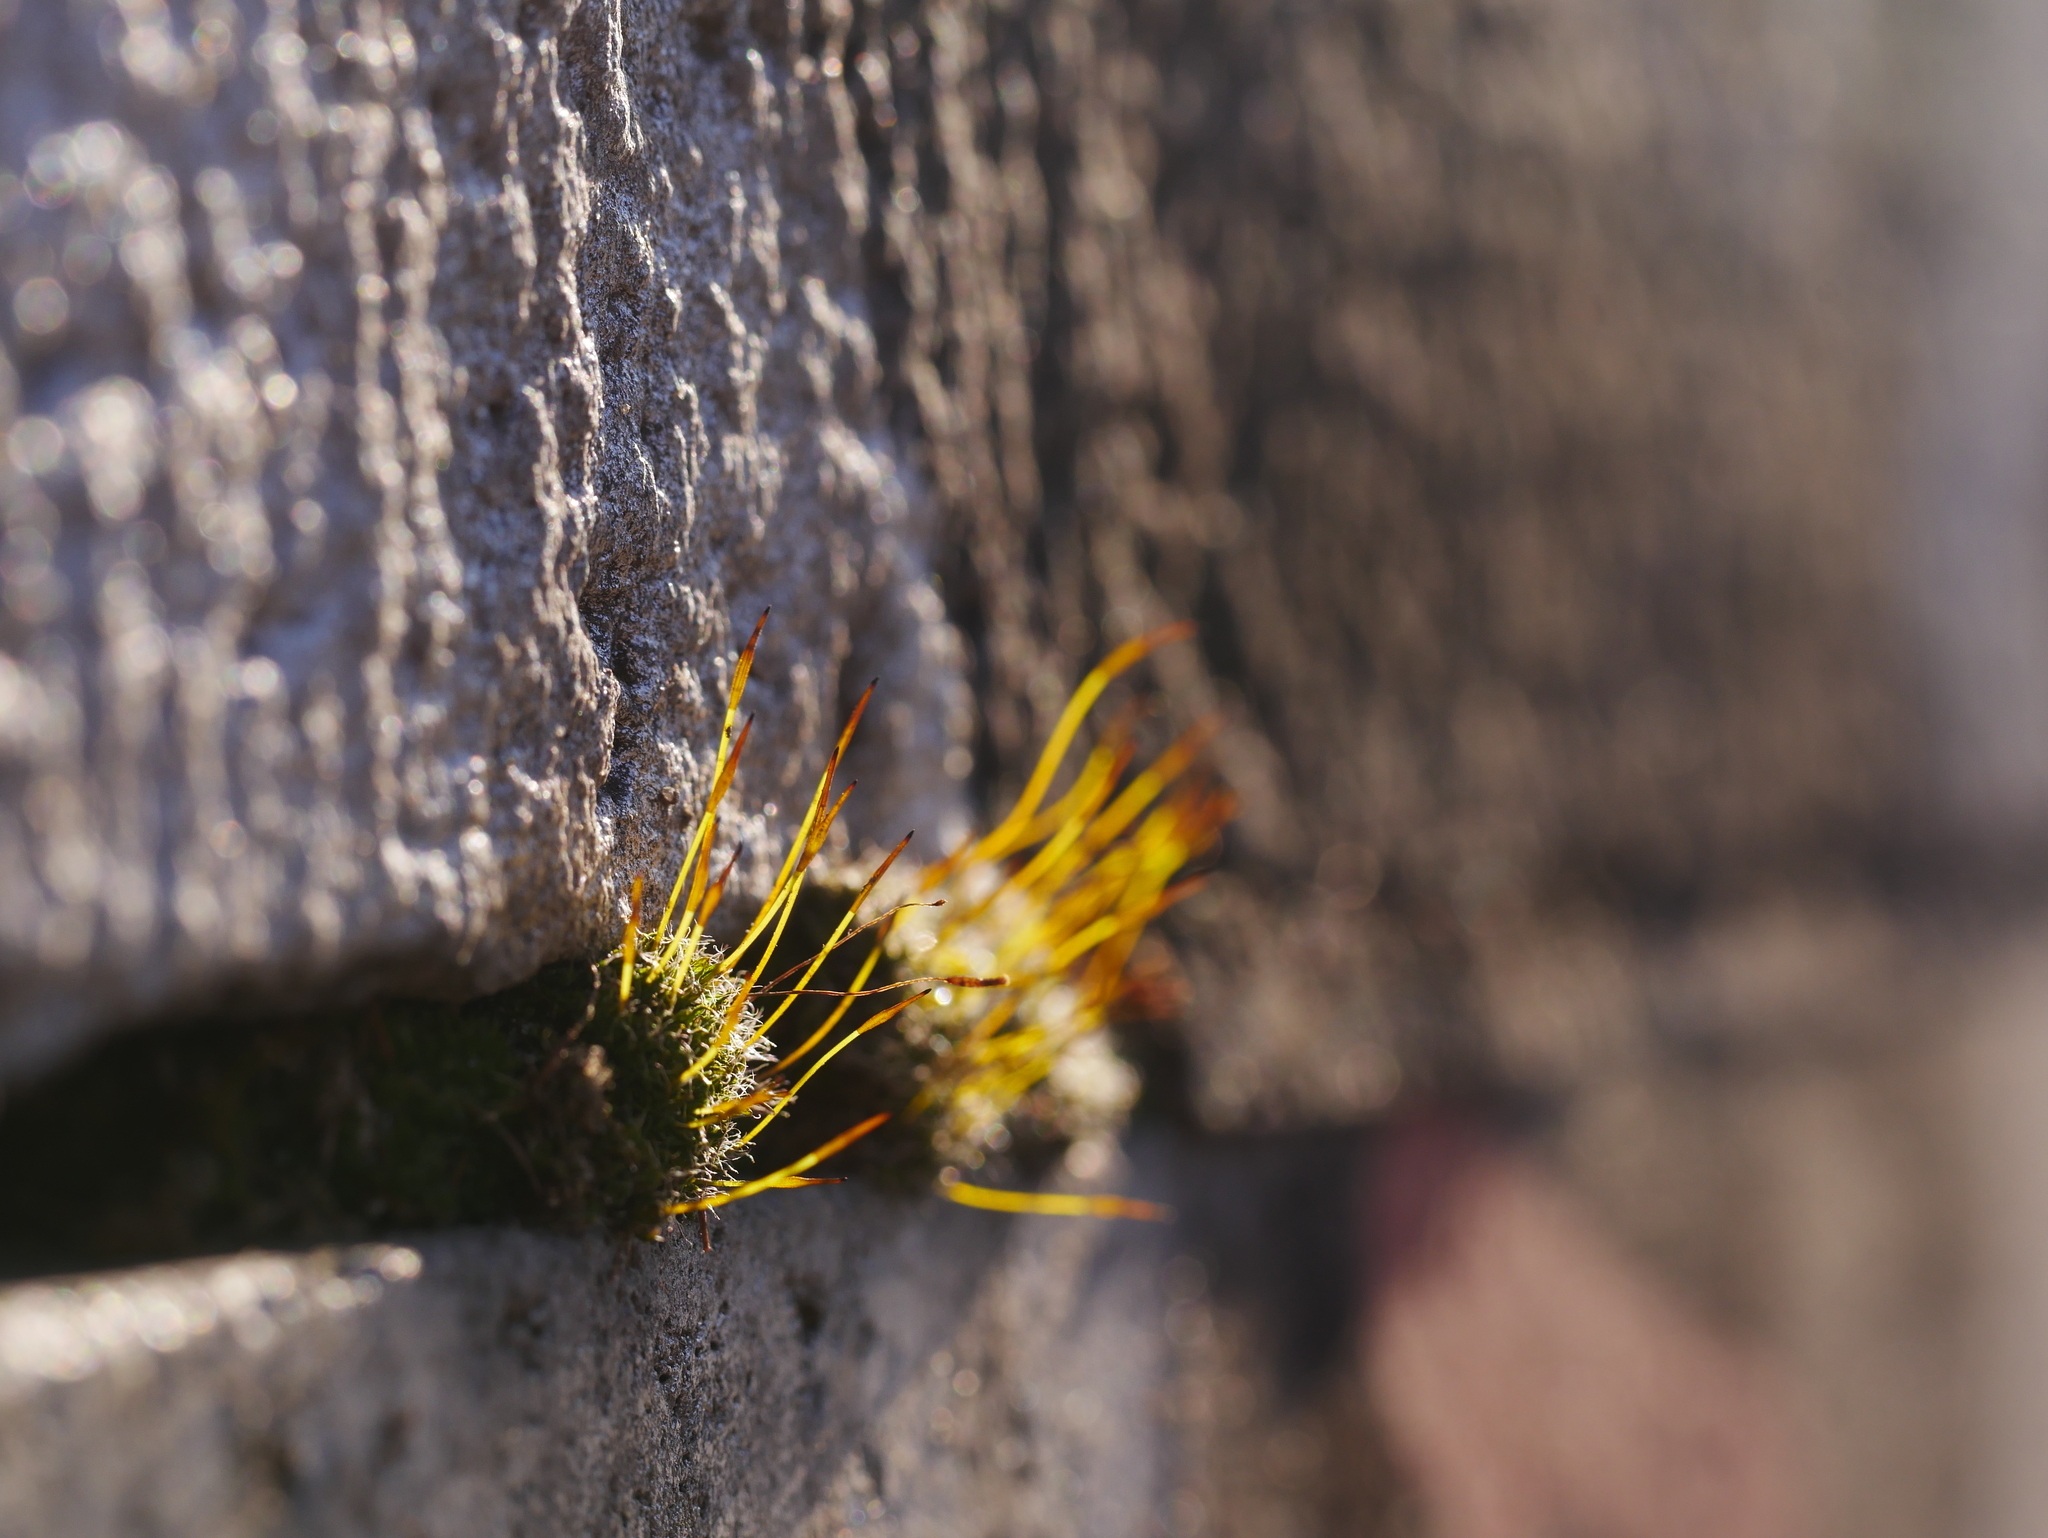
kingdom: Plantae
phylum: Bryophyta
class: Bryopsida
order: Pottiales
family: Pottiaceae
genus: Tortula
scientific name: Tortula muralis
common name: Wall screw-moss
